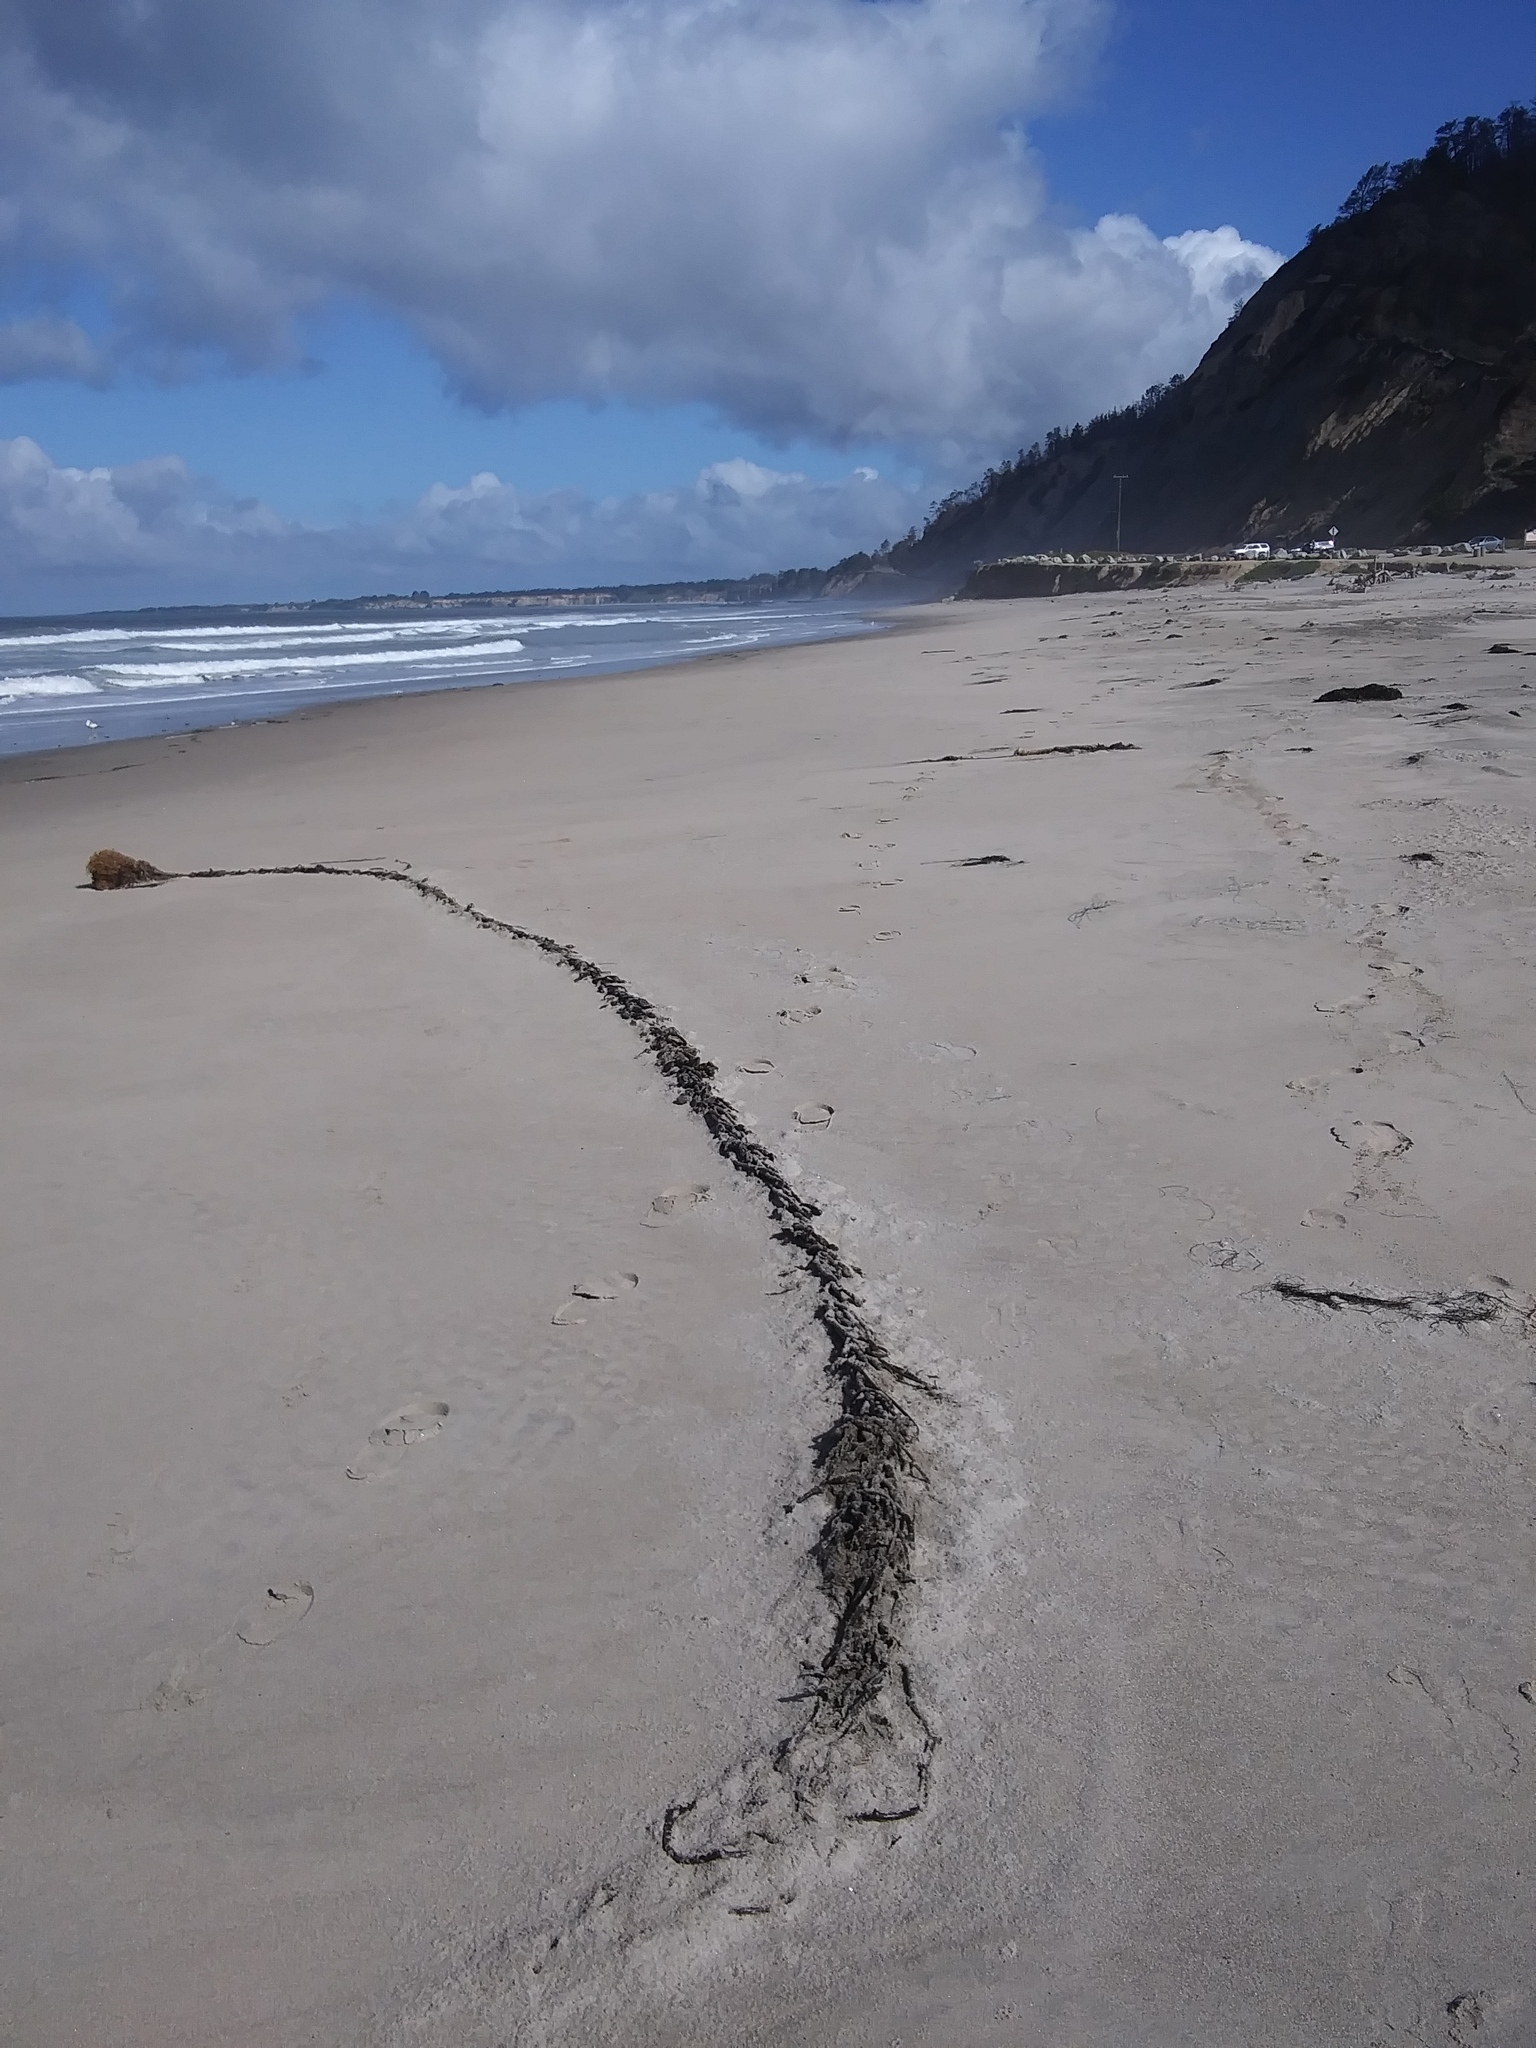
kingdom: Chromista
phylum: Ochrophyta
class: Phaeophyceae
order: Laminariales
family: Laminariaceae
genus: Macrocystis
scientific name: Macrocystis pyrifera
